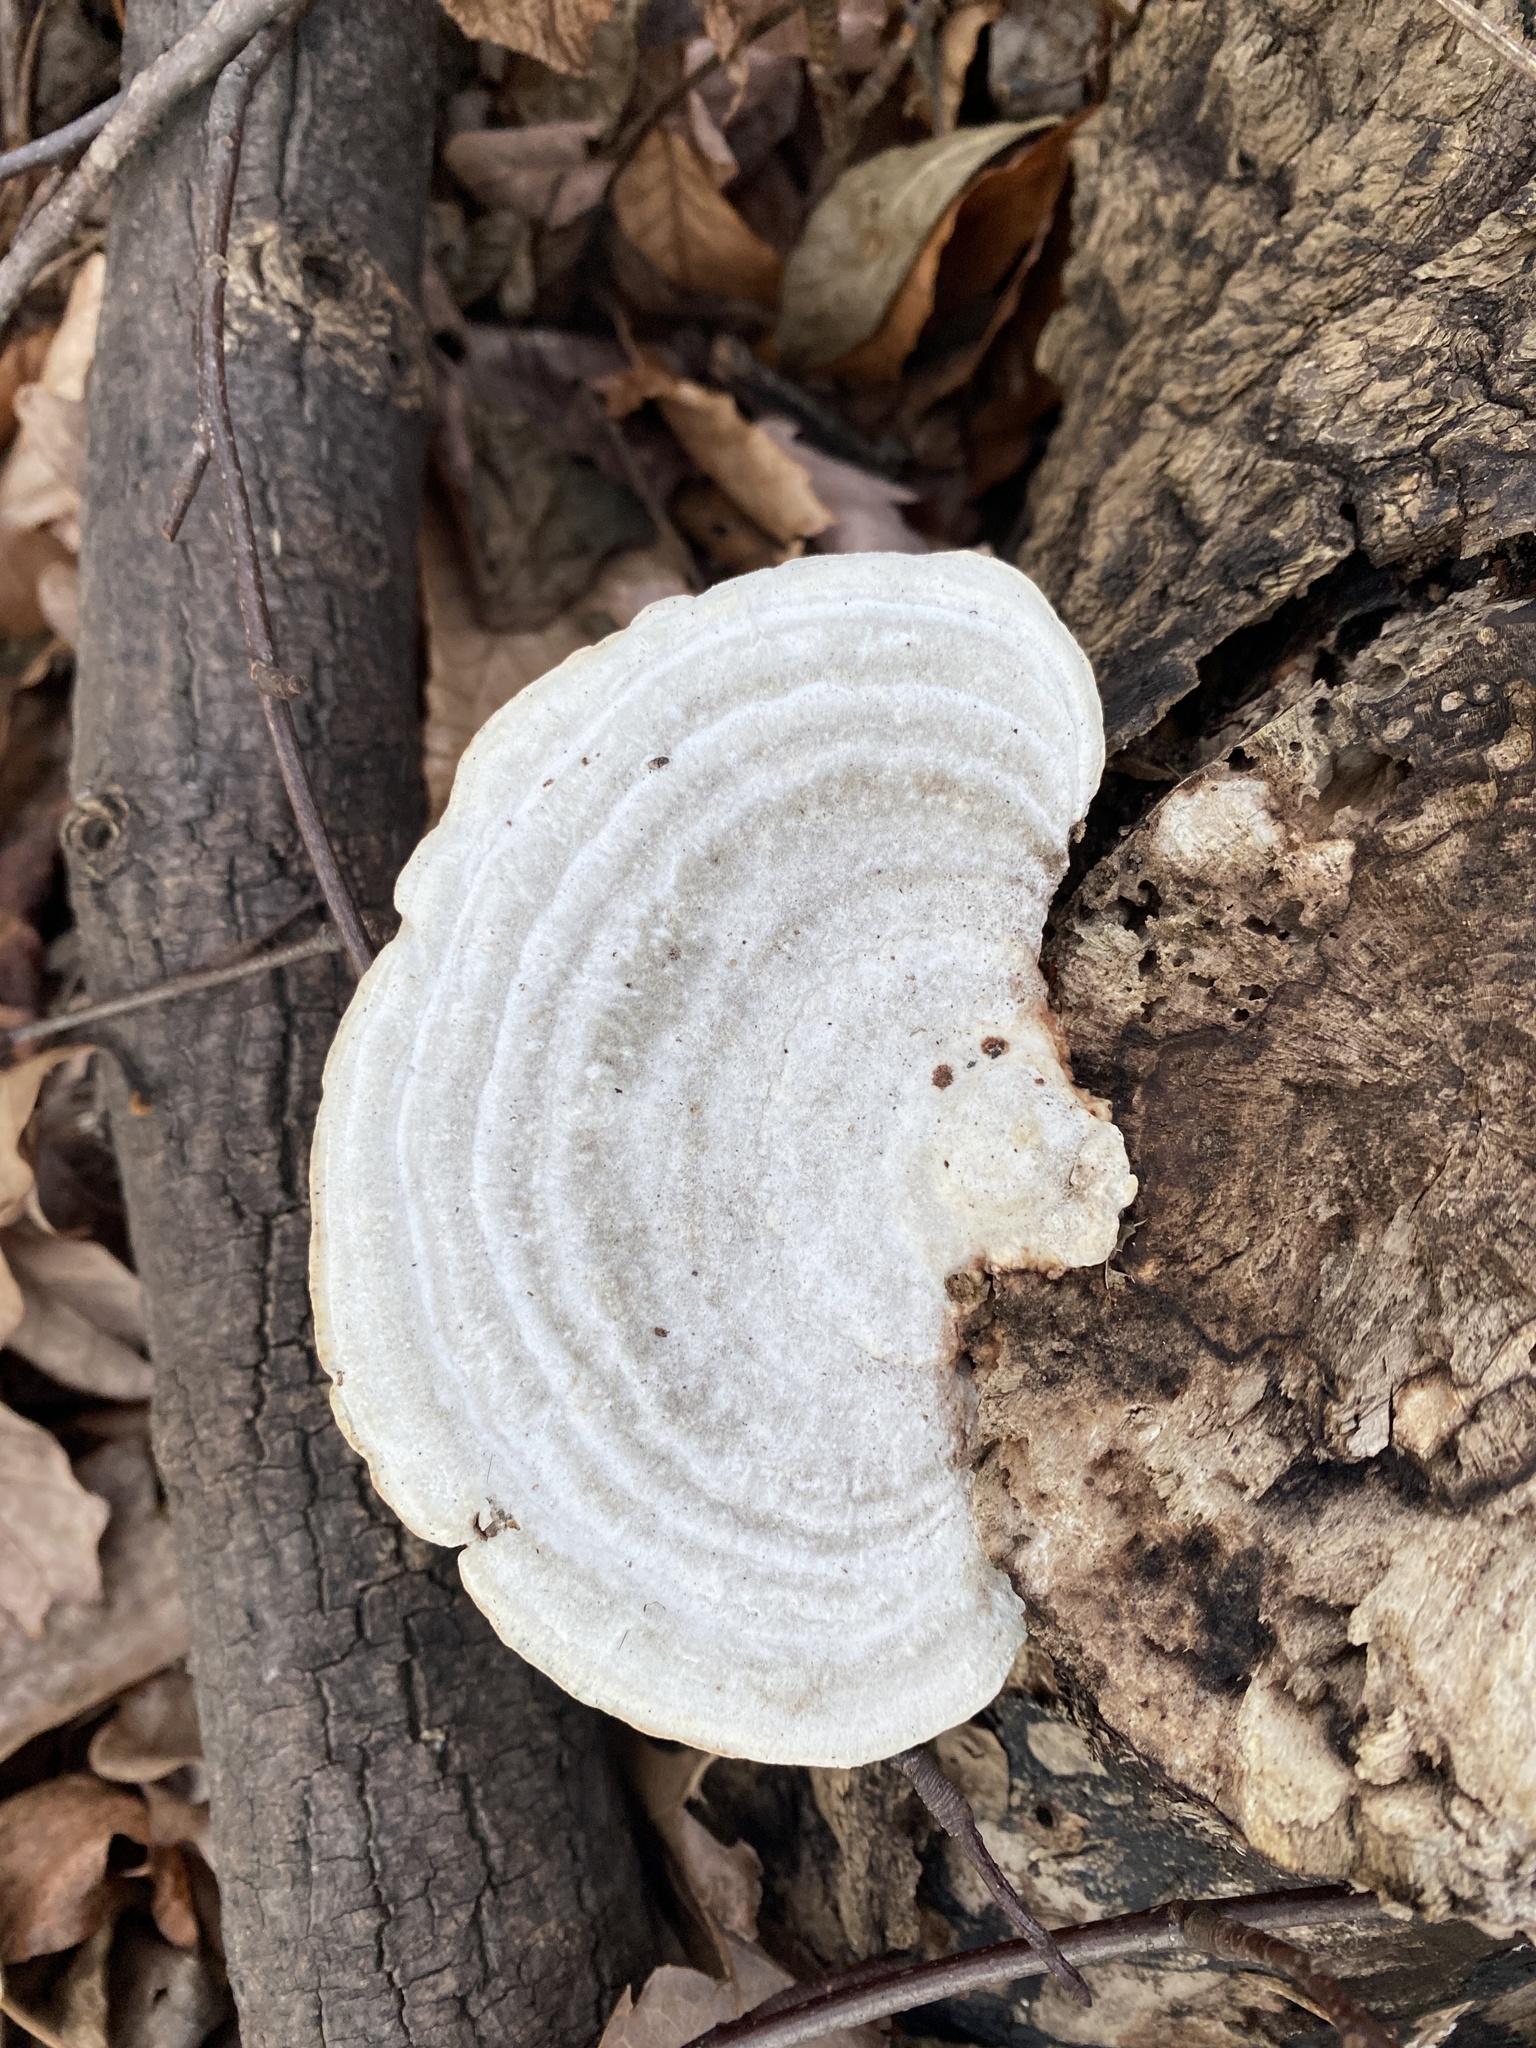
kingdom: Fungi
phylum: Basidiomycota
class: Agaricomycetes
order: Polyporales
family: Polyporaceae
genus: Trametes
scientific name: Trametes gibbosa
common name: Lumpy bracket
